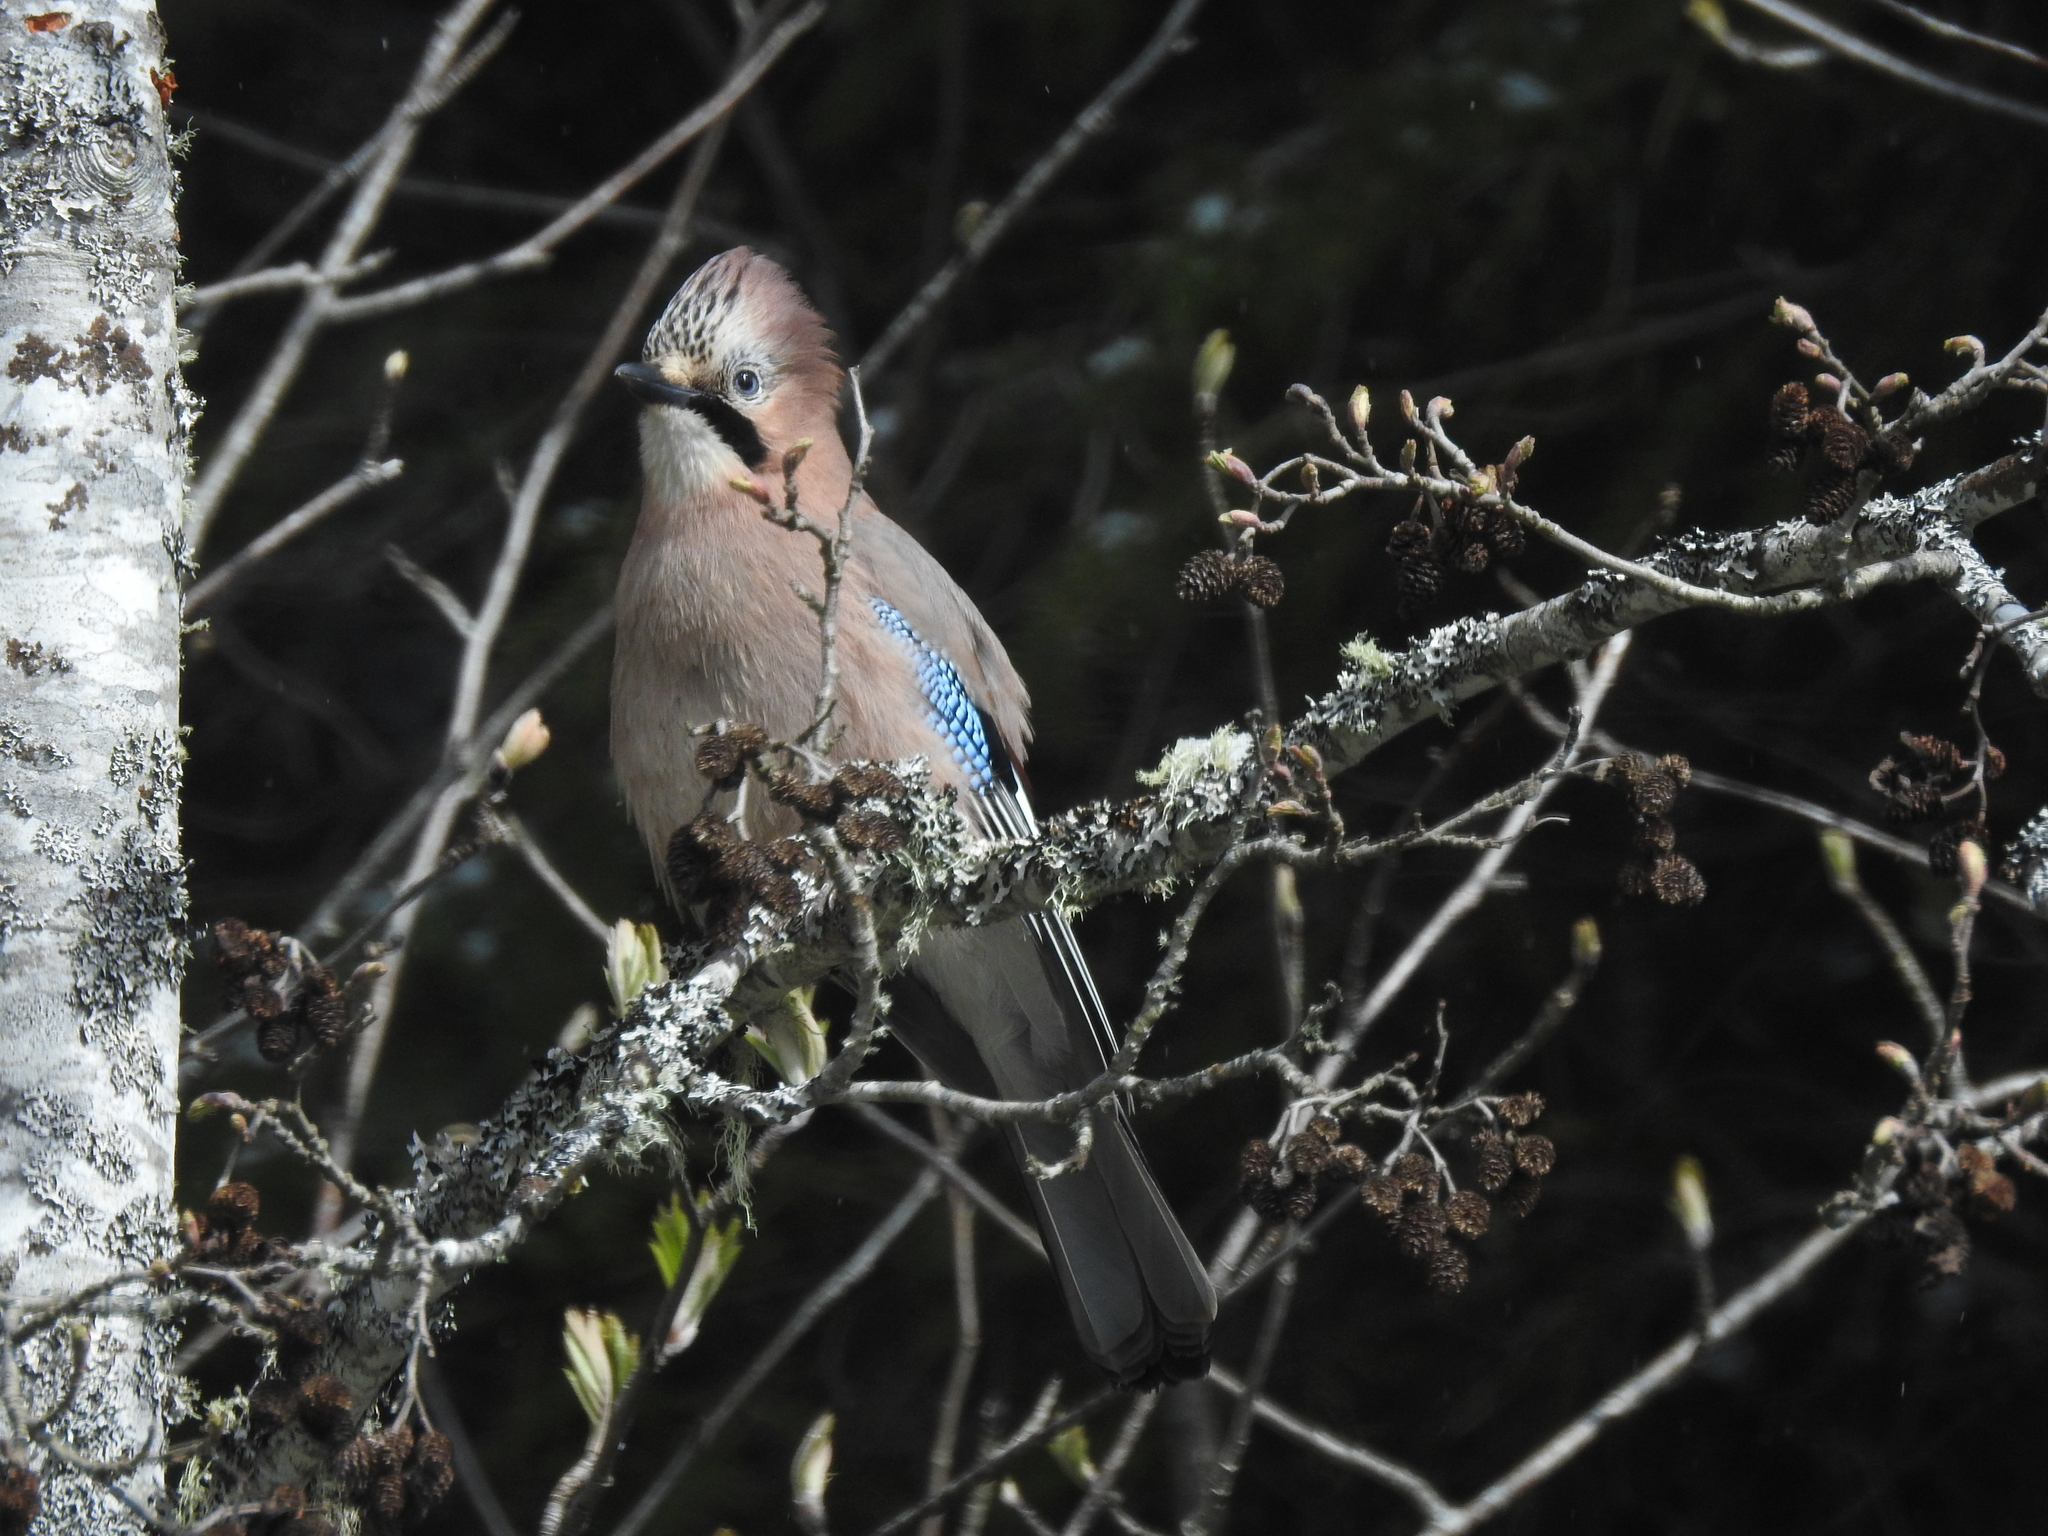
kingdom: Animalia
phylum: Chordata
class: Aves
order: Passeriformes
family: Corvidae
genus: Garrulus
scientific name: Garrulus glandarius
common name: Eurasian jay
